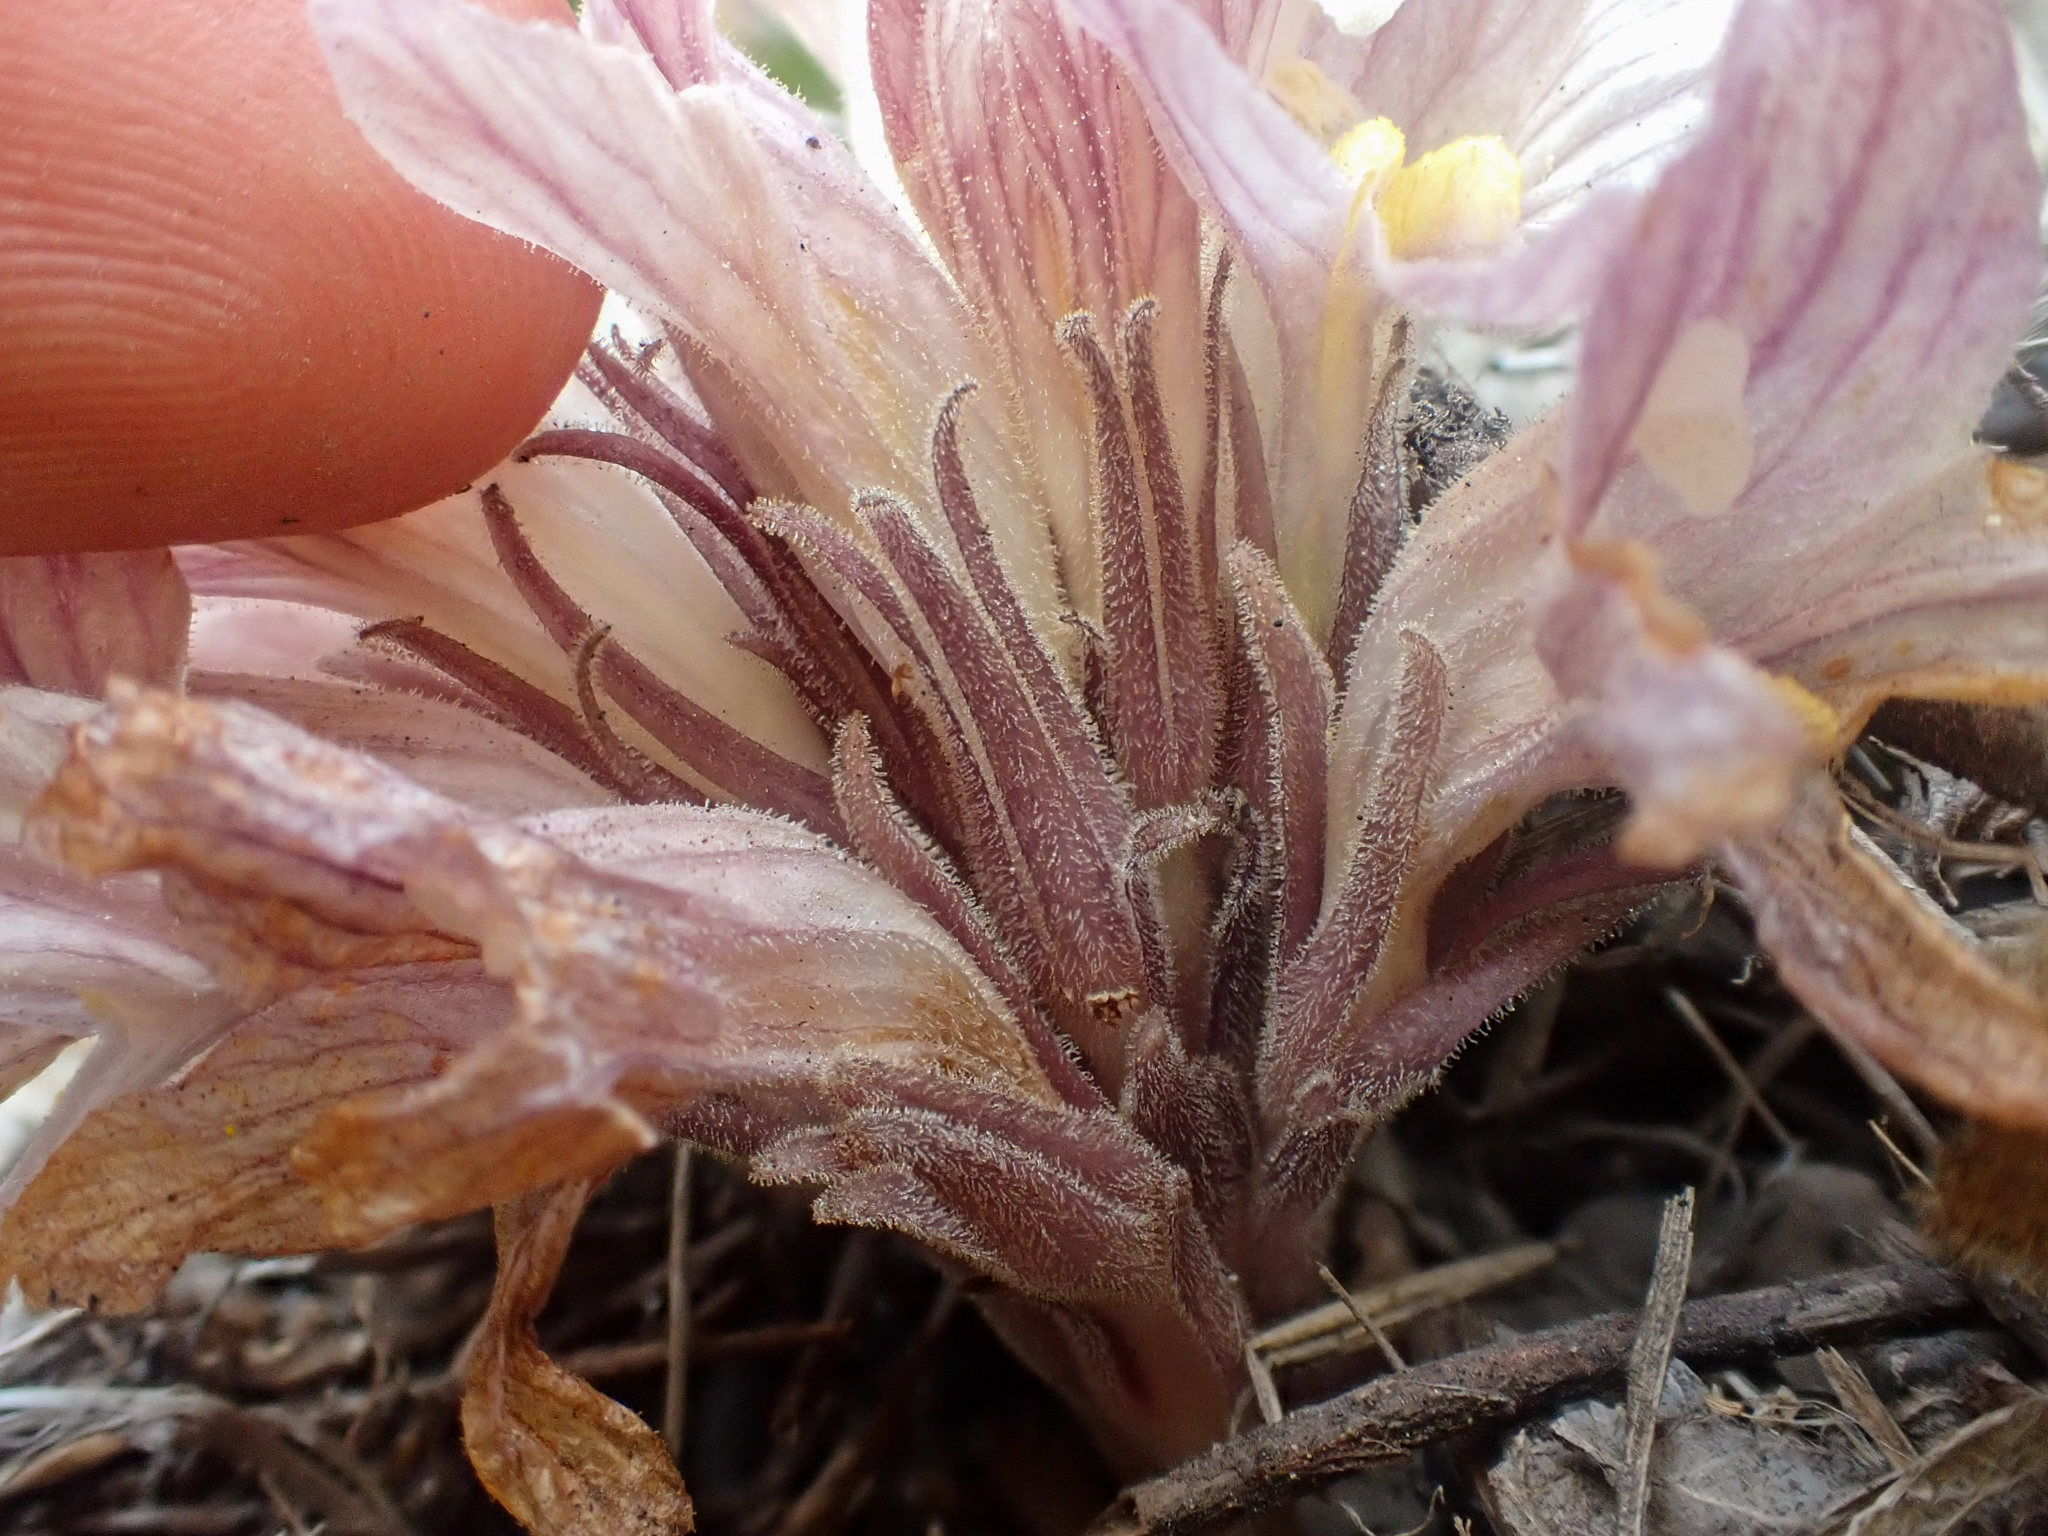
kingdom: Plantae
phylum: Tracheophyta
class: Magnoliopsida
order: Lamiales
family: Orobanchaceae
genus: Aphyllon
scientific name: Aphyllon californicum
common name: California broomrape
